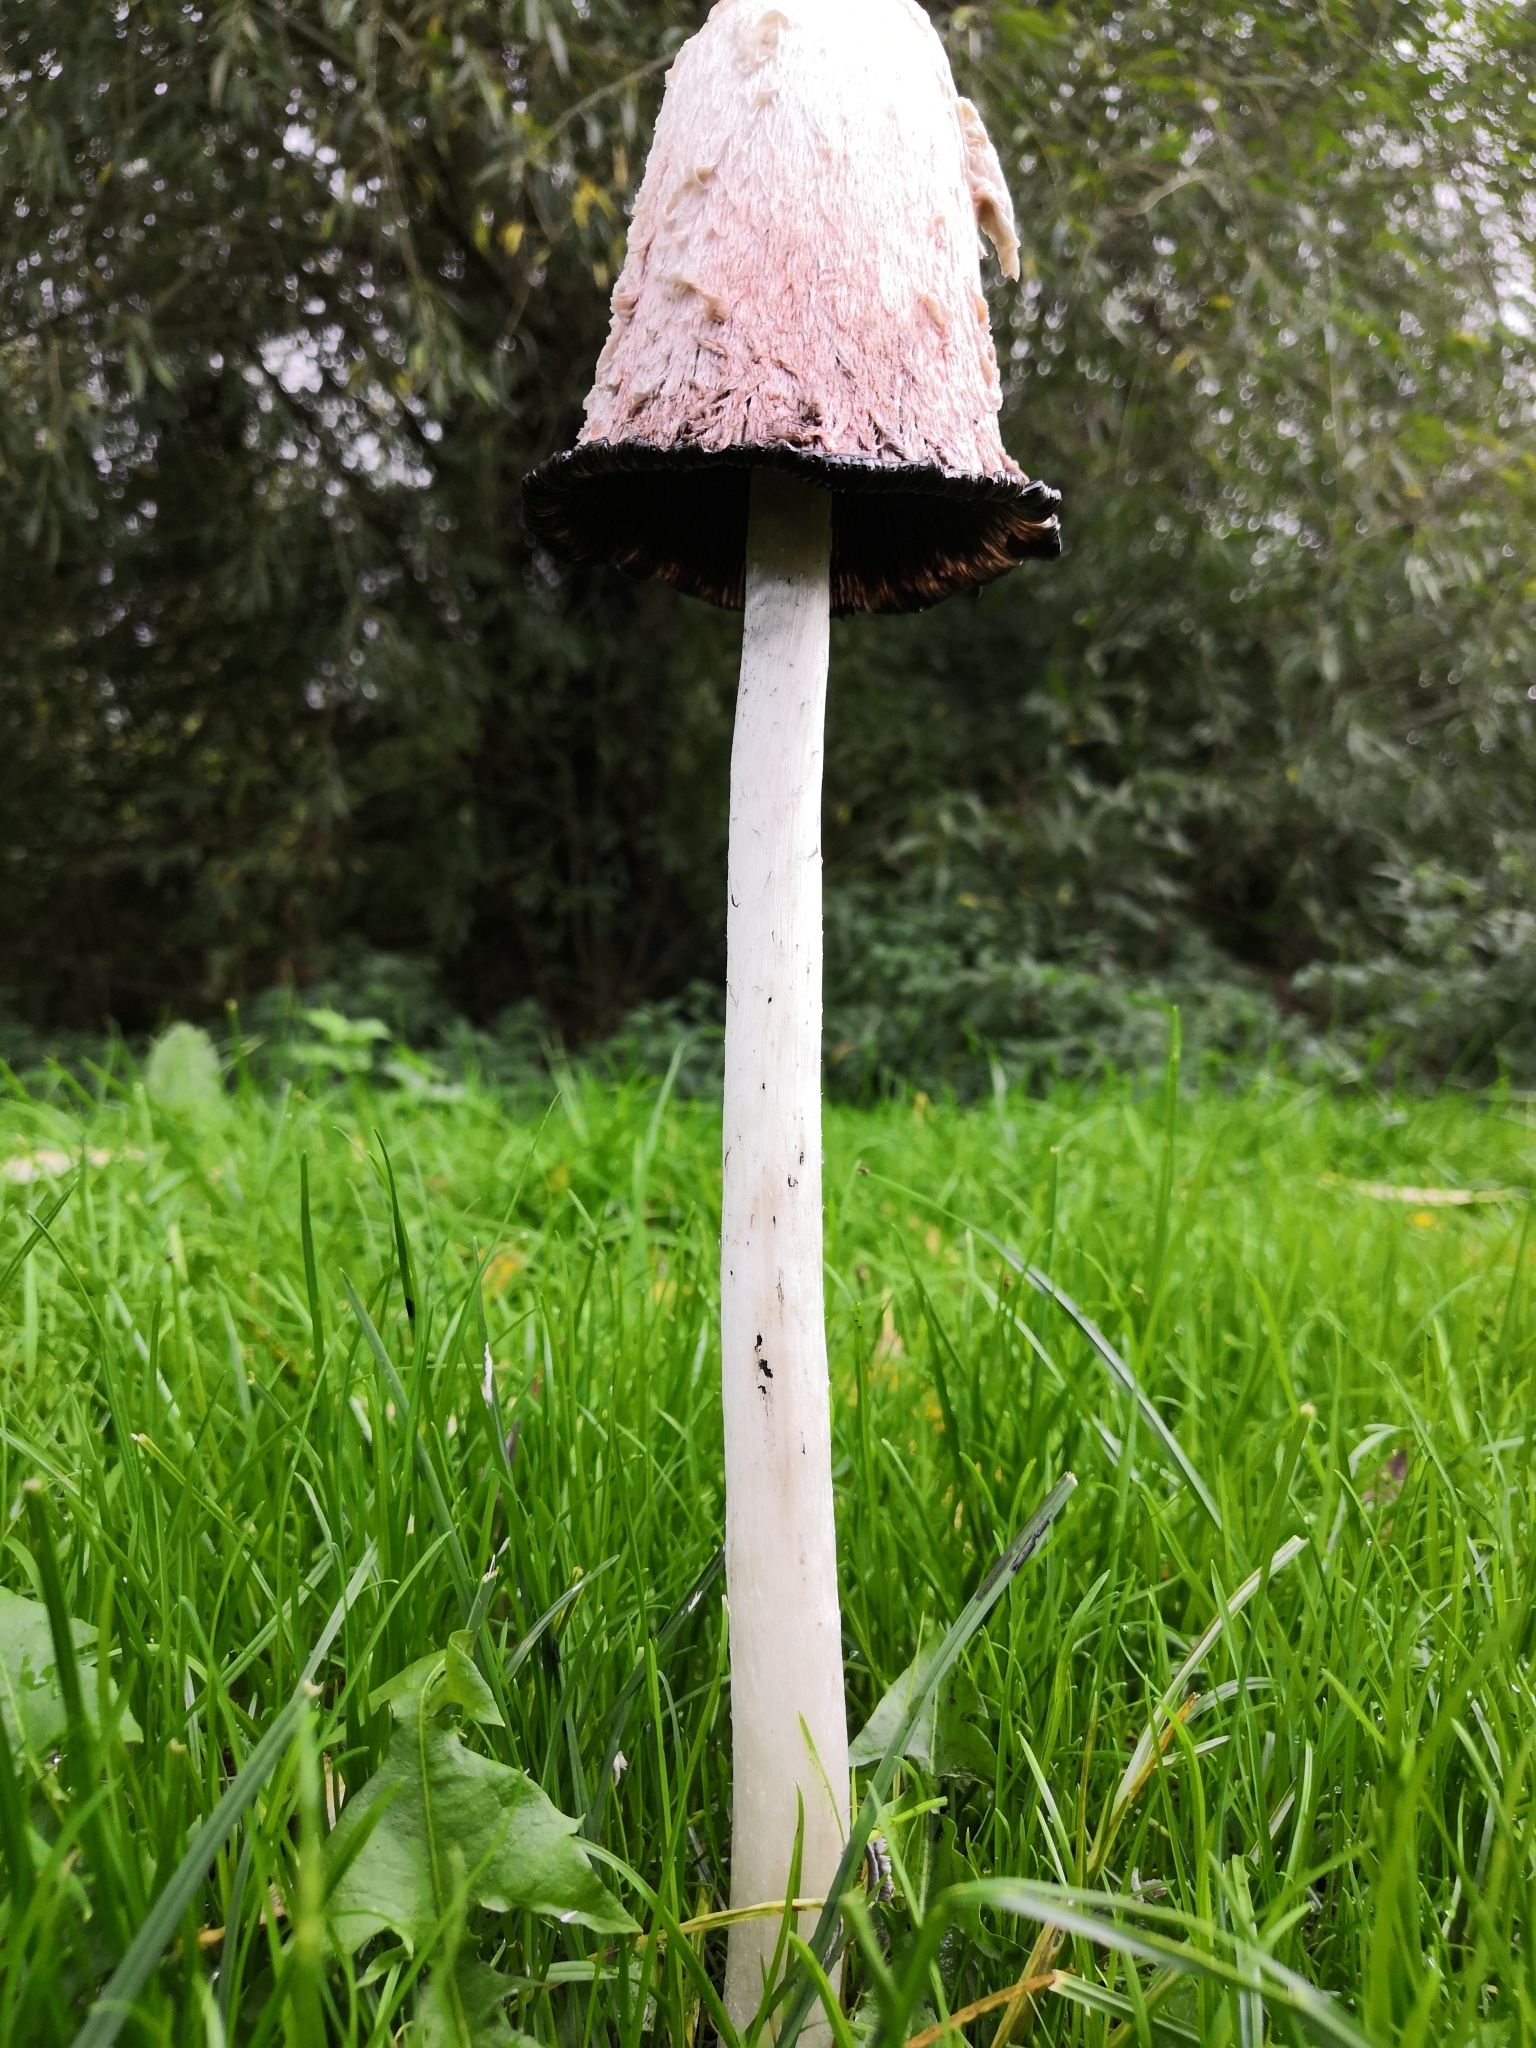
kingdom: Fungi
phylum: Basidiomycota
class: Agaricomycetes
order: Agaricales
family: Agaricaceae
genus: Coprinus
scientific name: Coprinus comatus
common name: Lawyer's wig
